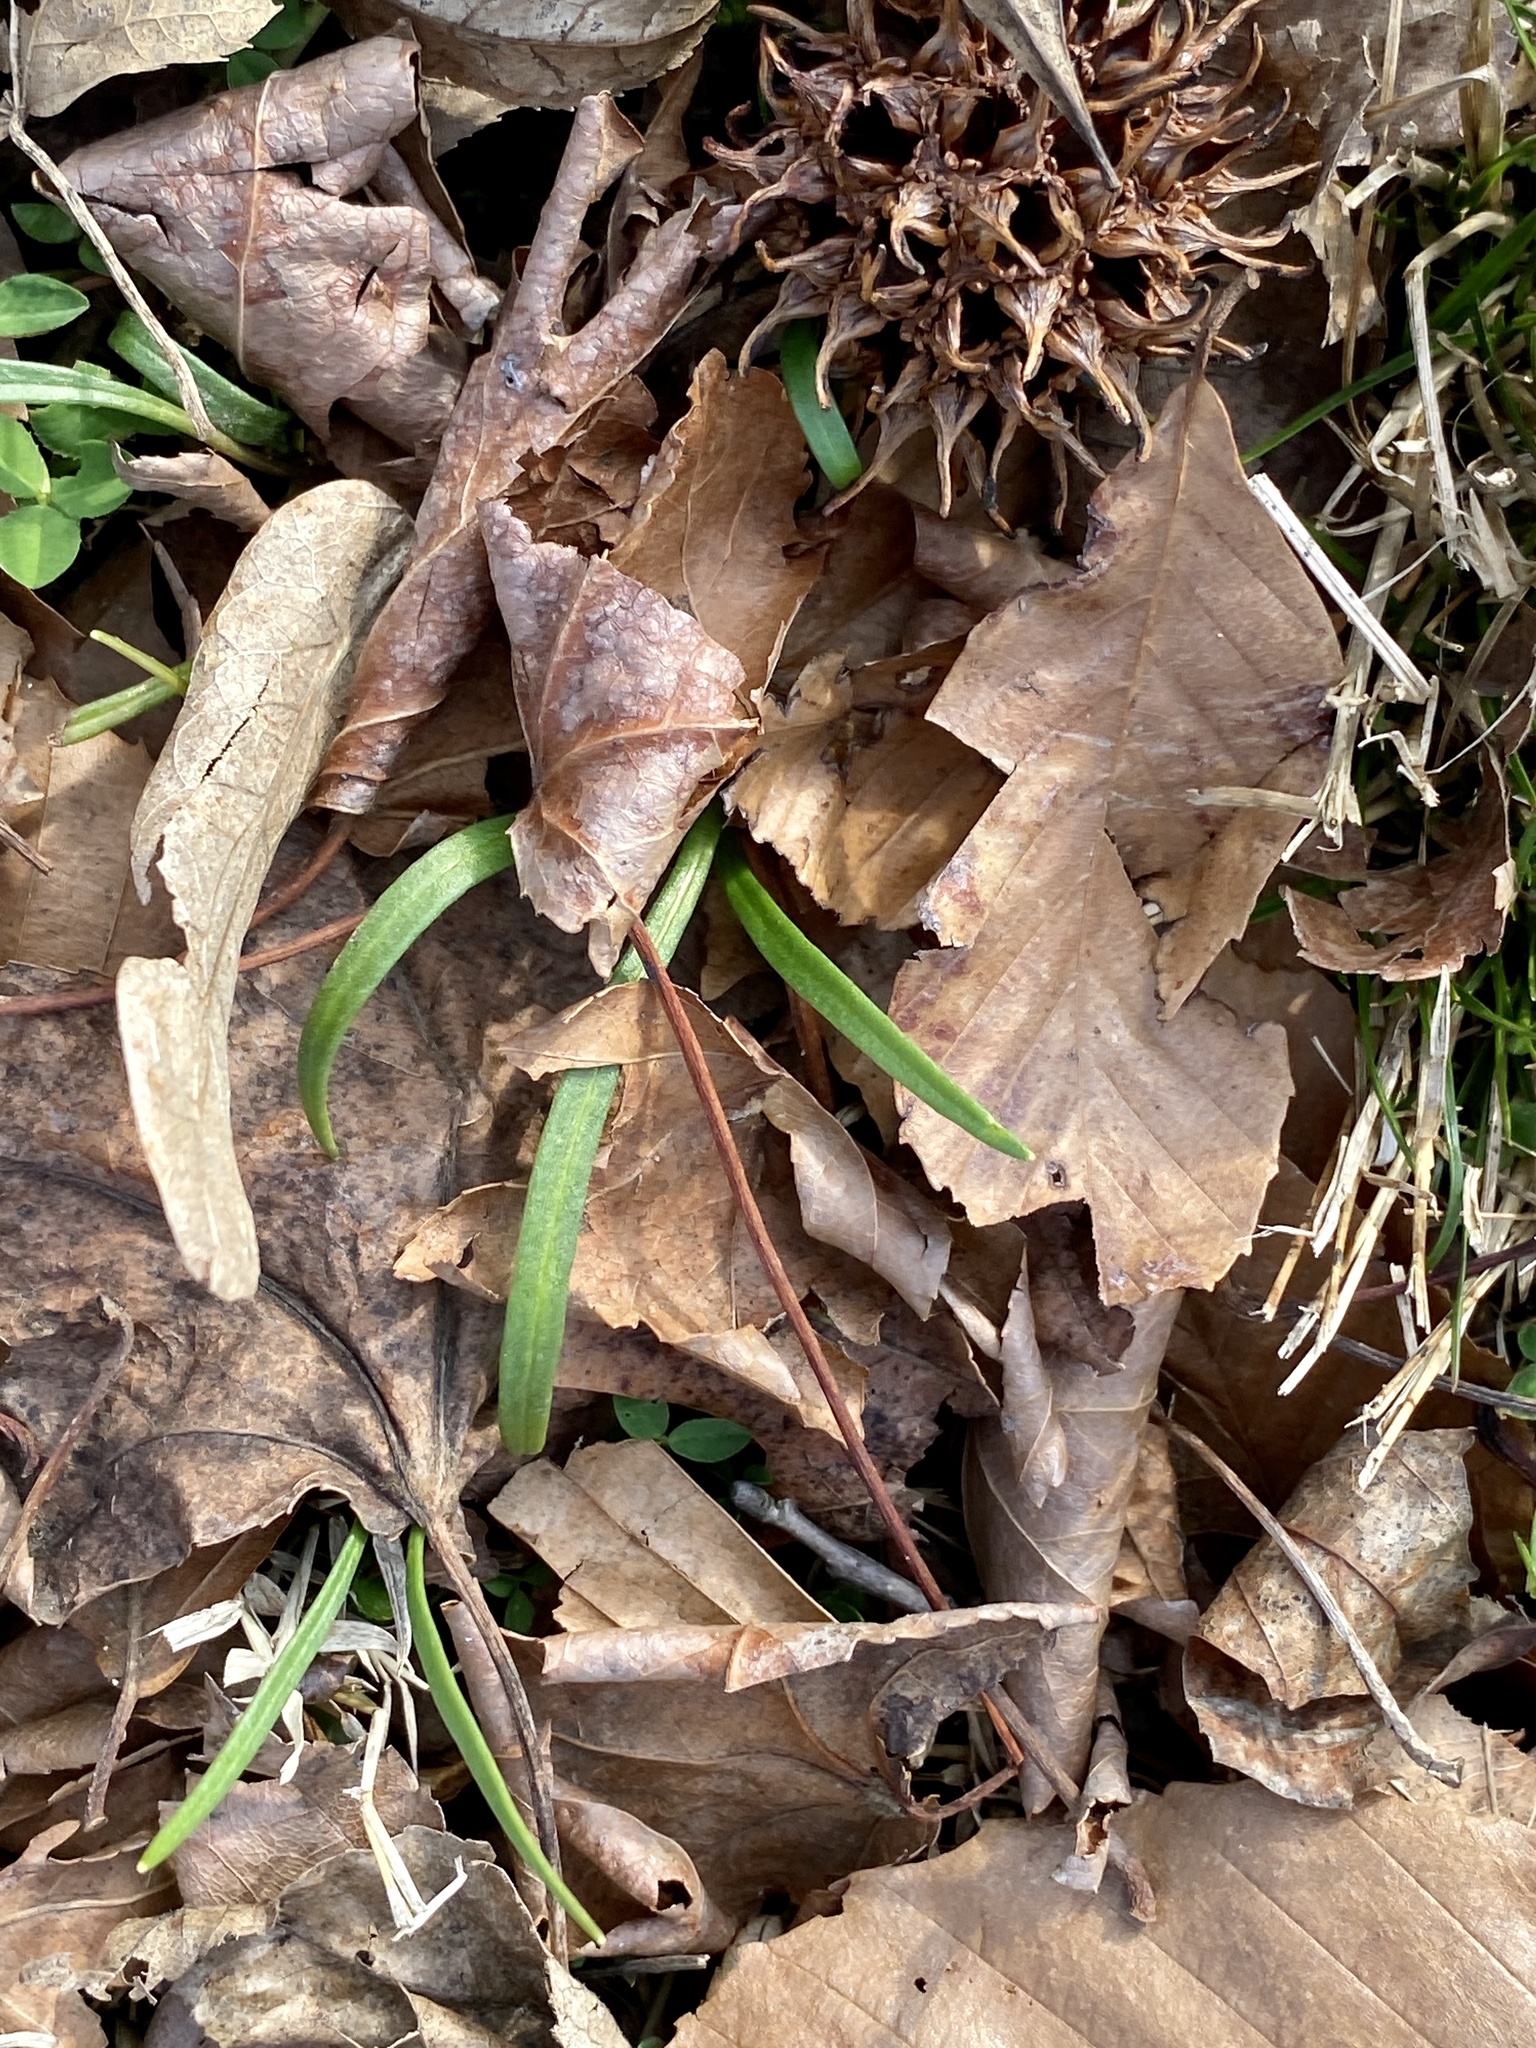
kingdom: Plantae
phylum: Tracheophyta
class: Magnoliopsida
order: Caryophyllales
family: Montiaceae
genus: Claytonia
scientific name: Claytonia virginica
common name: Virginia springbeauty
